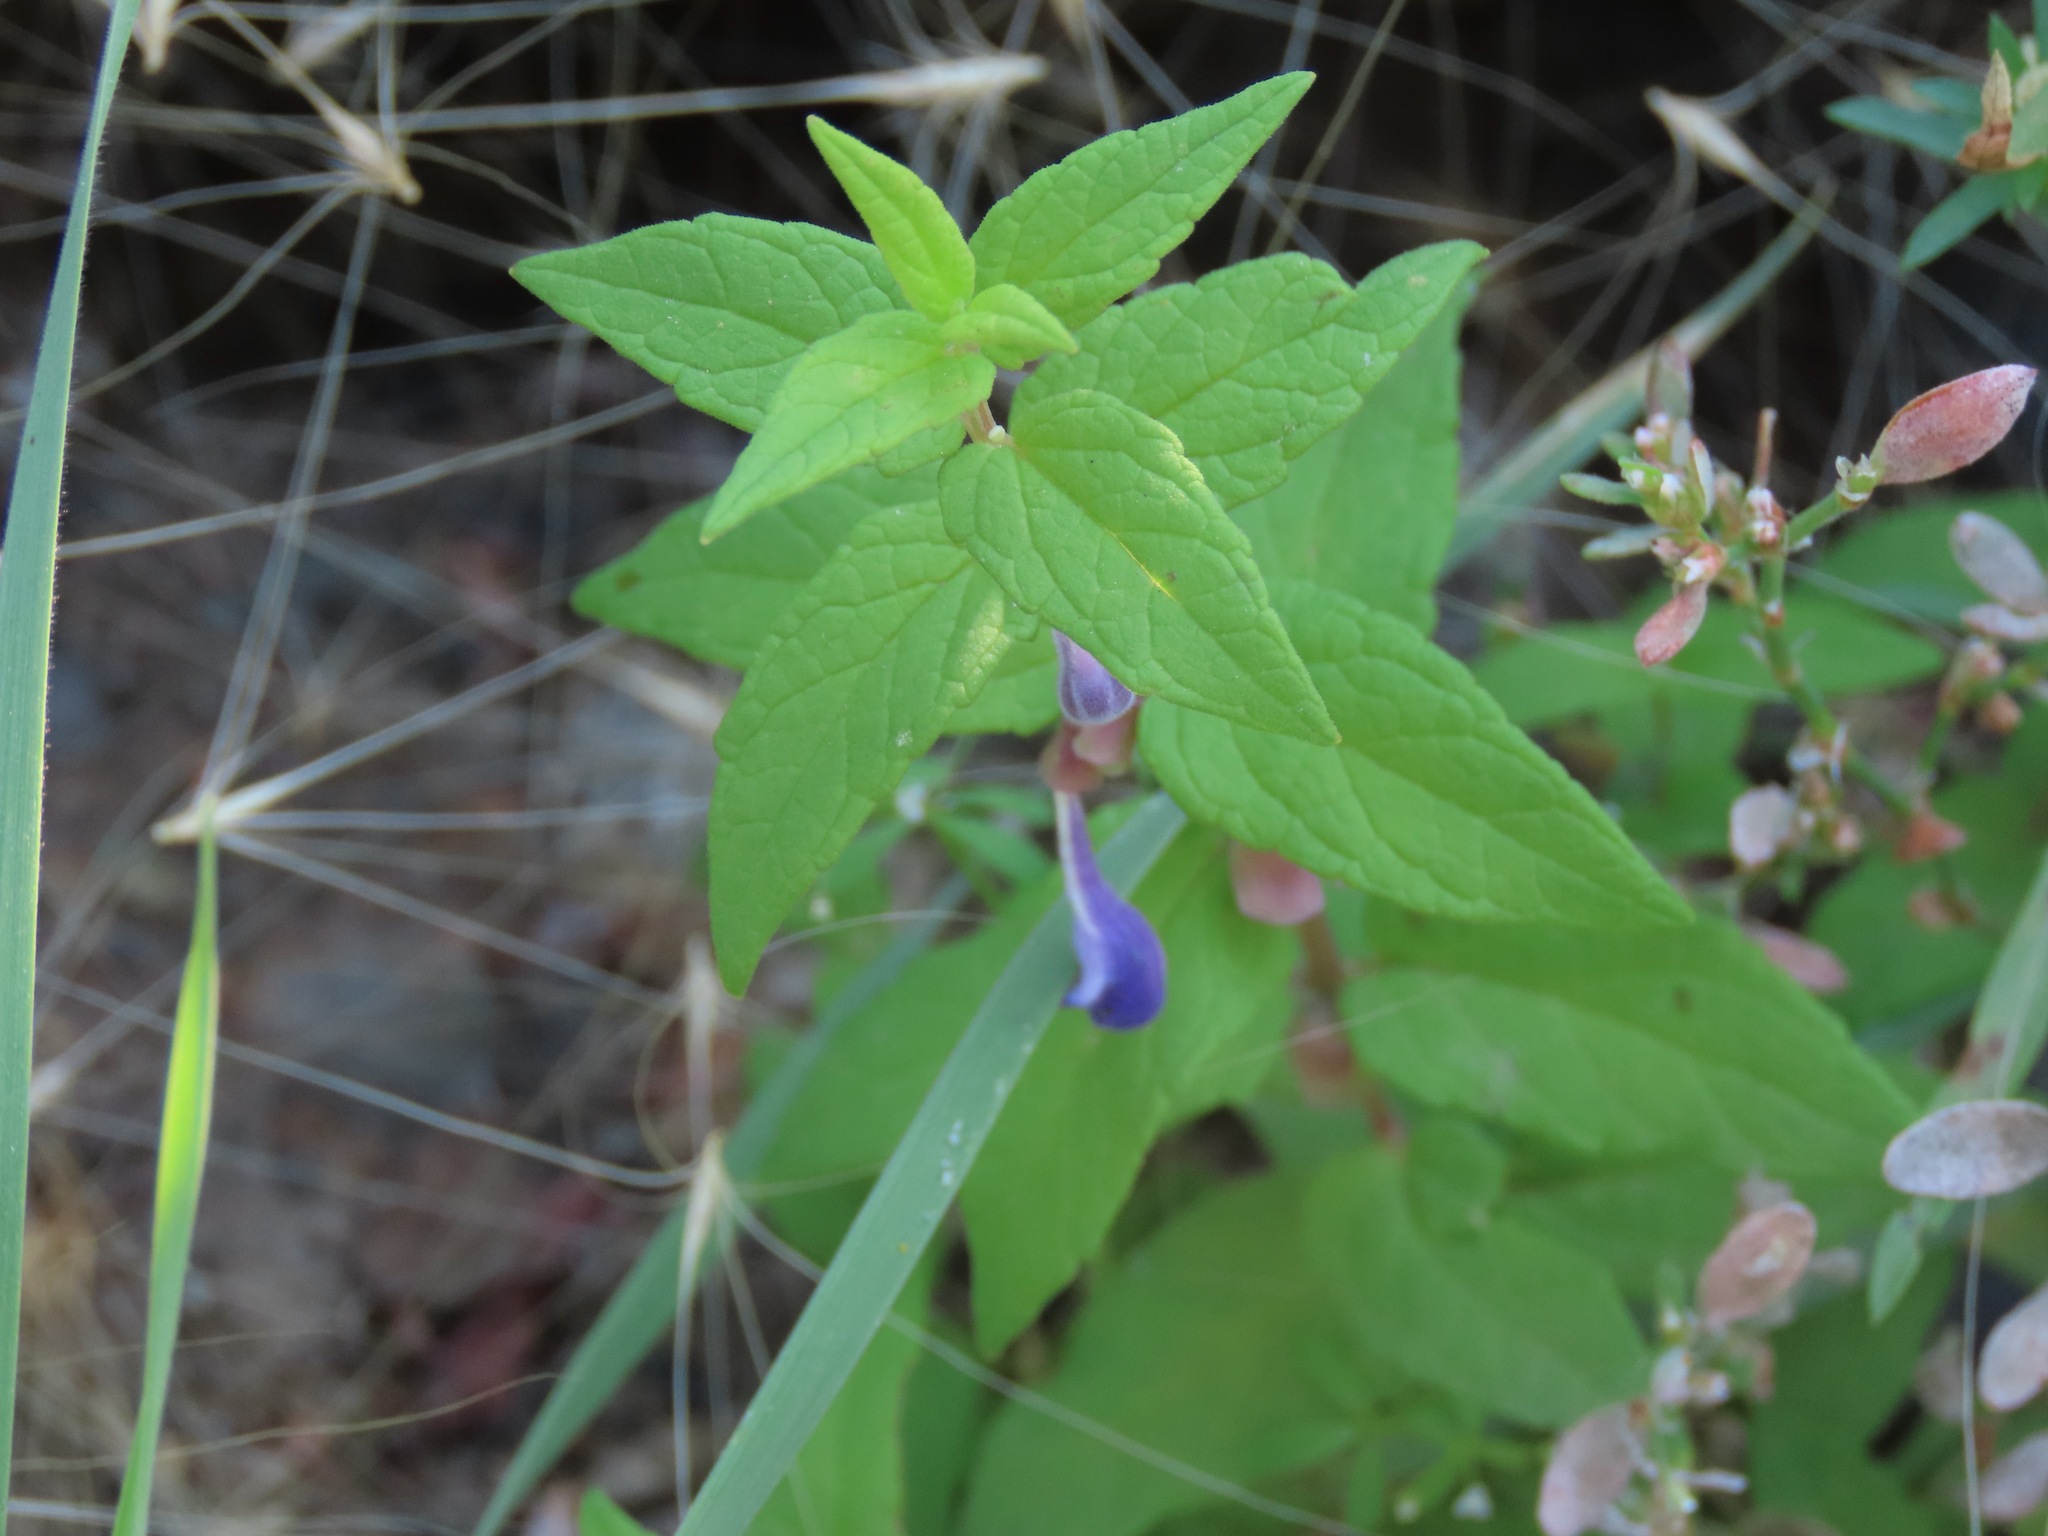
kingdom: Plantae
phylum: Tracheophyta
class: Magnoliopsida
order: Lamiales
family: Lamiaceae
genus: Scutellaria
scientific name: Scutellaria galericulata
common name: Skullcap
